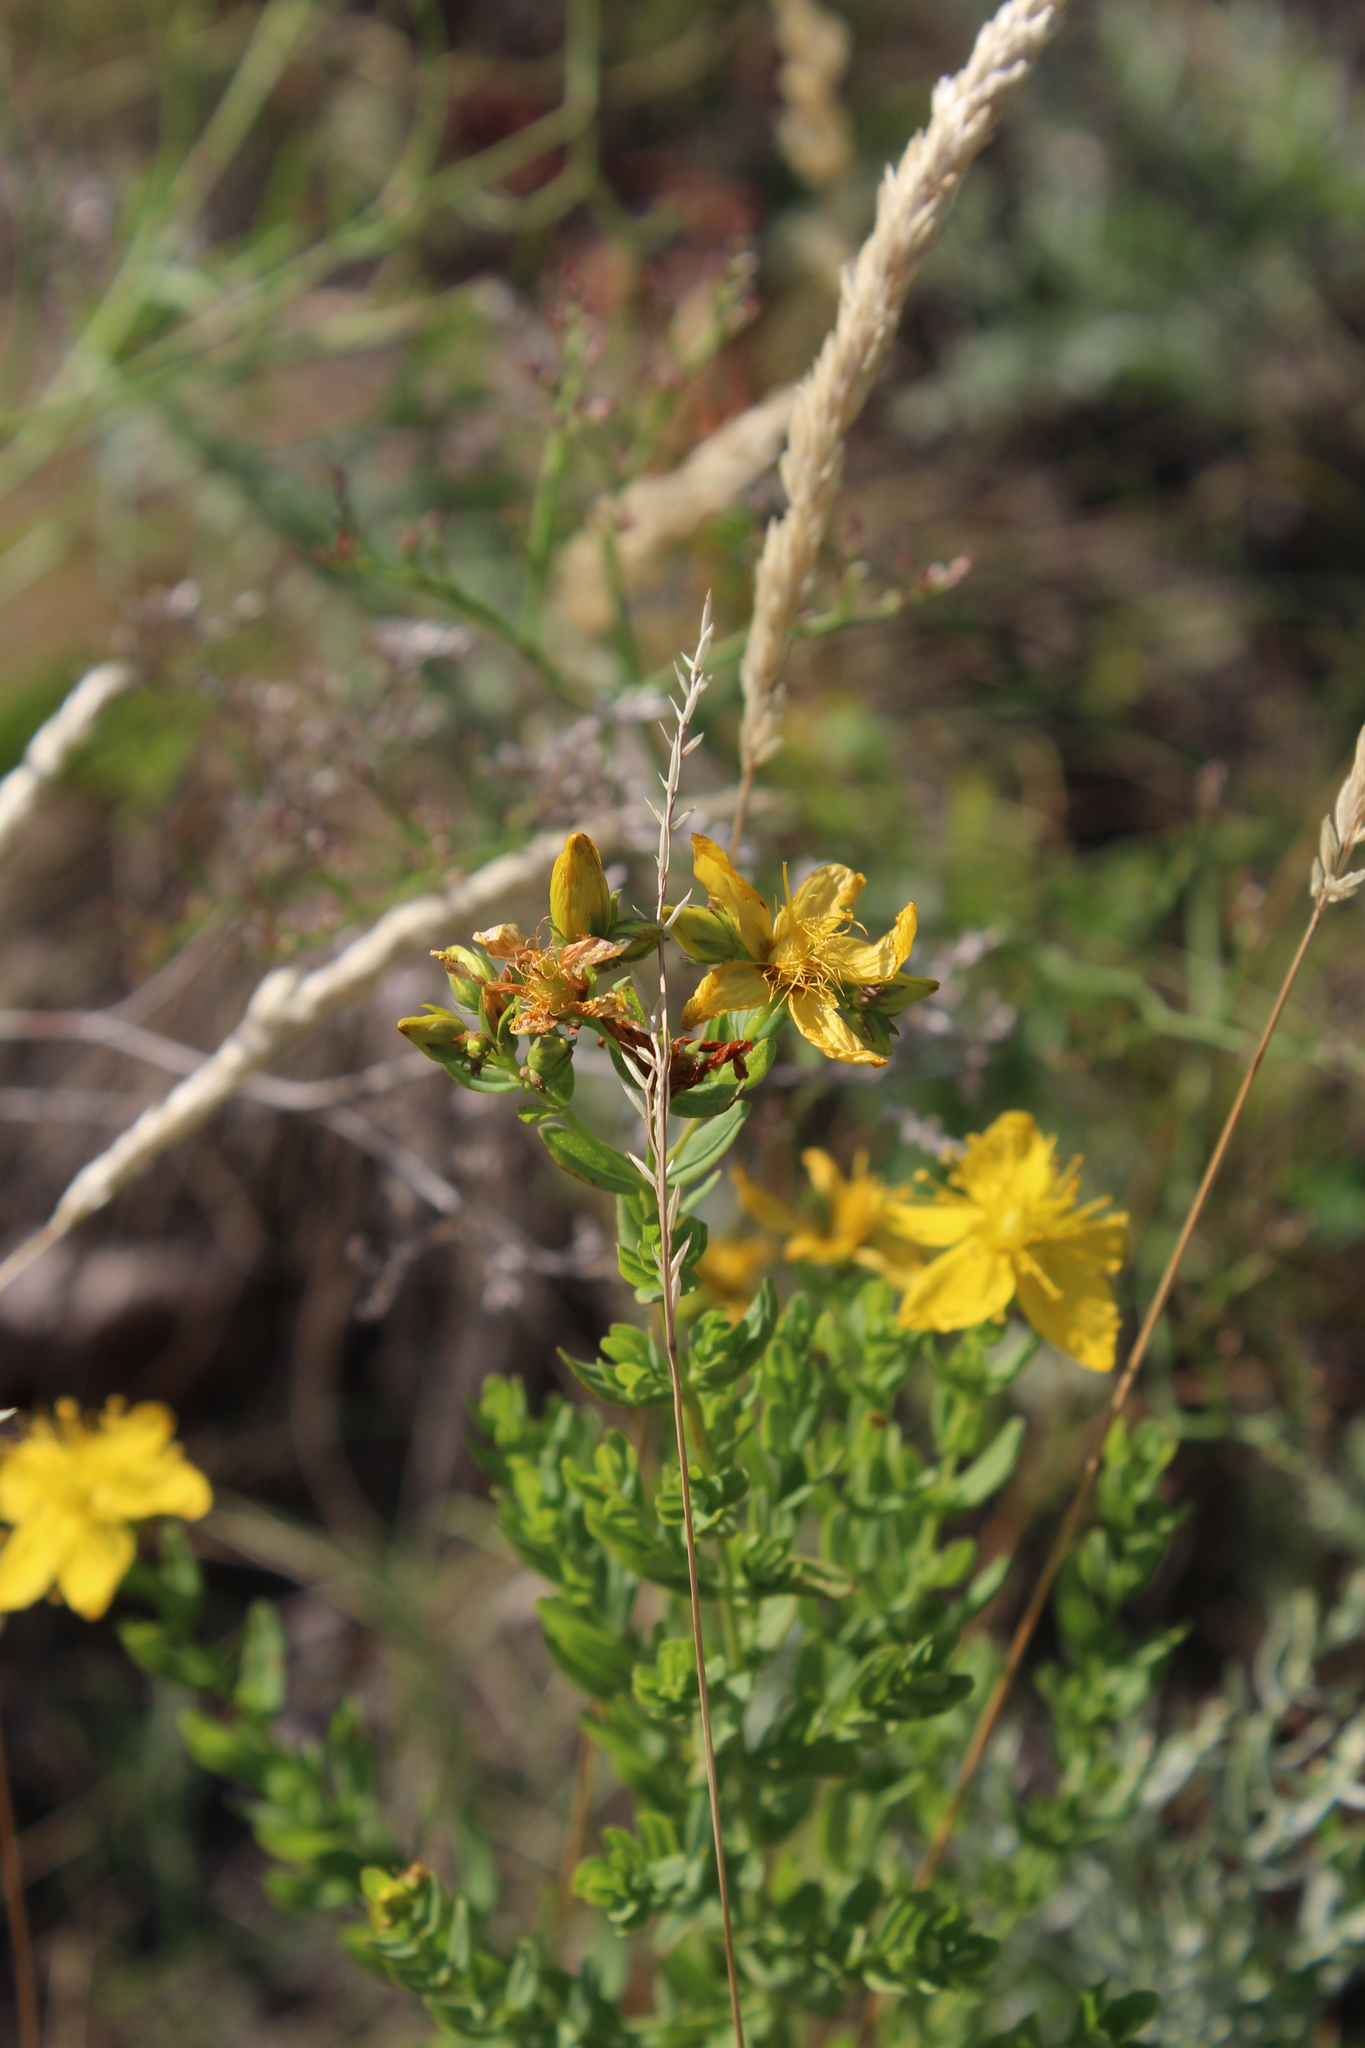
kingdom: Plantae
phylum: Tracheophyta
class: Magnoliopsida
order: Malpighiales
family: Hypericaceae
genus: Hypericum
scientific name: Hypericum perforatum
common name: Common st. johnswort
